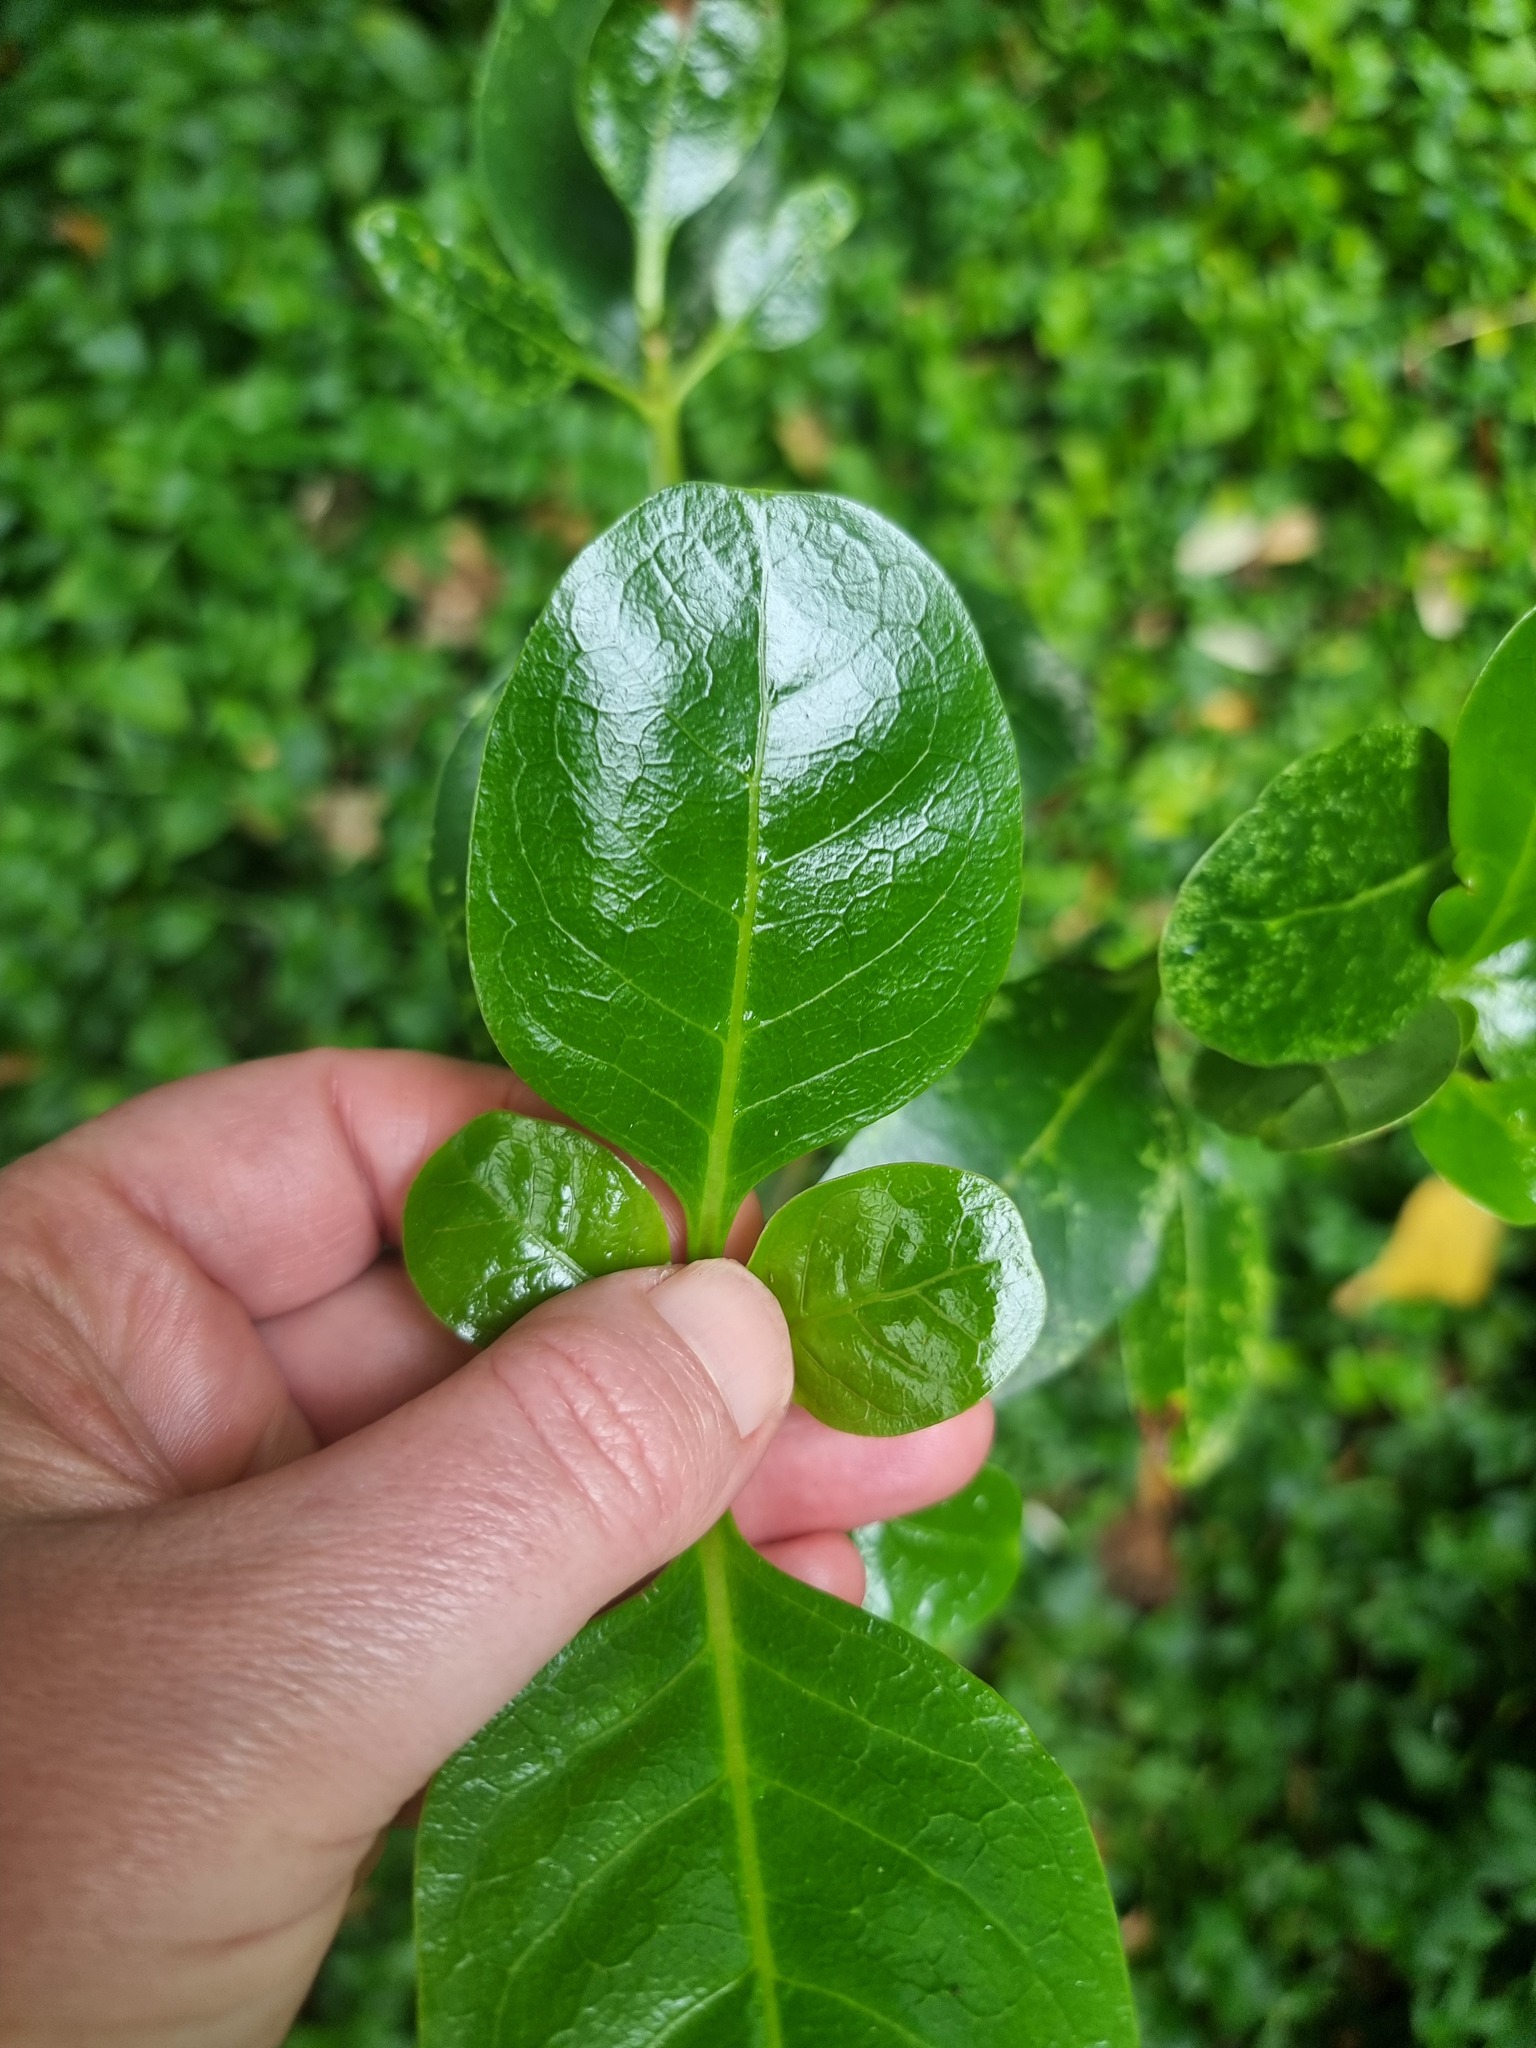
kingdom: Plantae
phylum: Tracheophyta
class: Magnoliopsida
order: Gentianales
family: Rubiaceae
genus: Coprosma
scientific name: Coprosma repens
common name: Tree bedstraw
